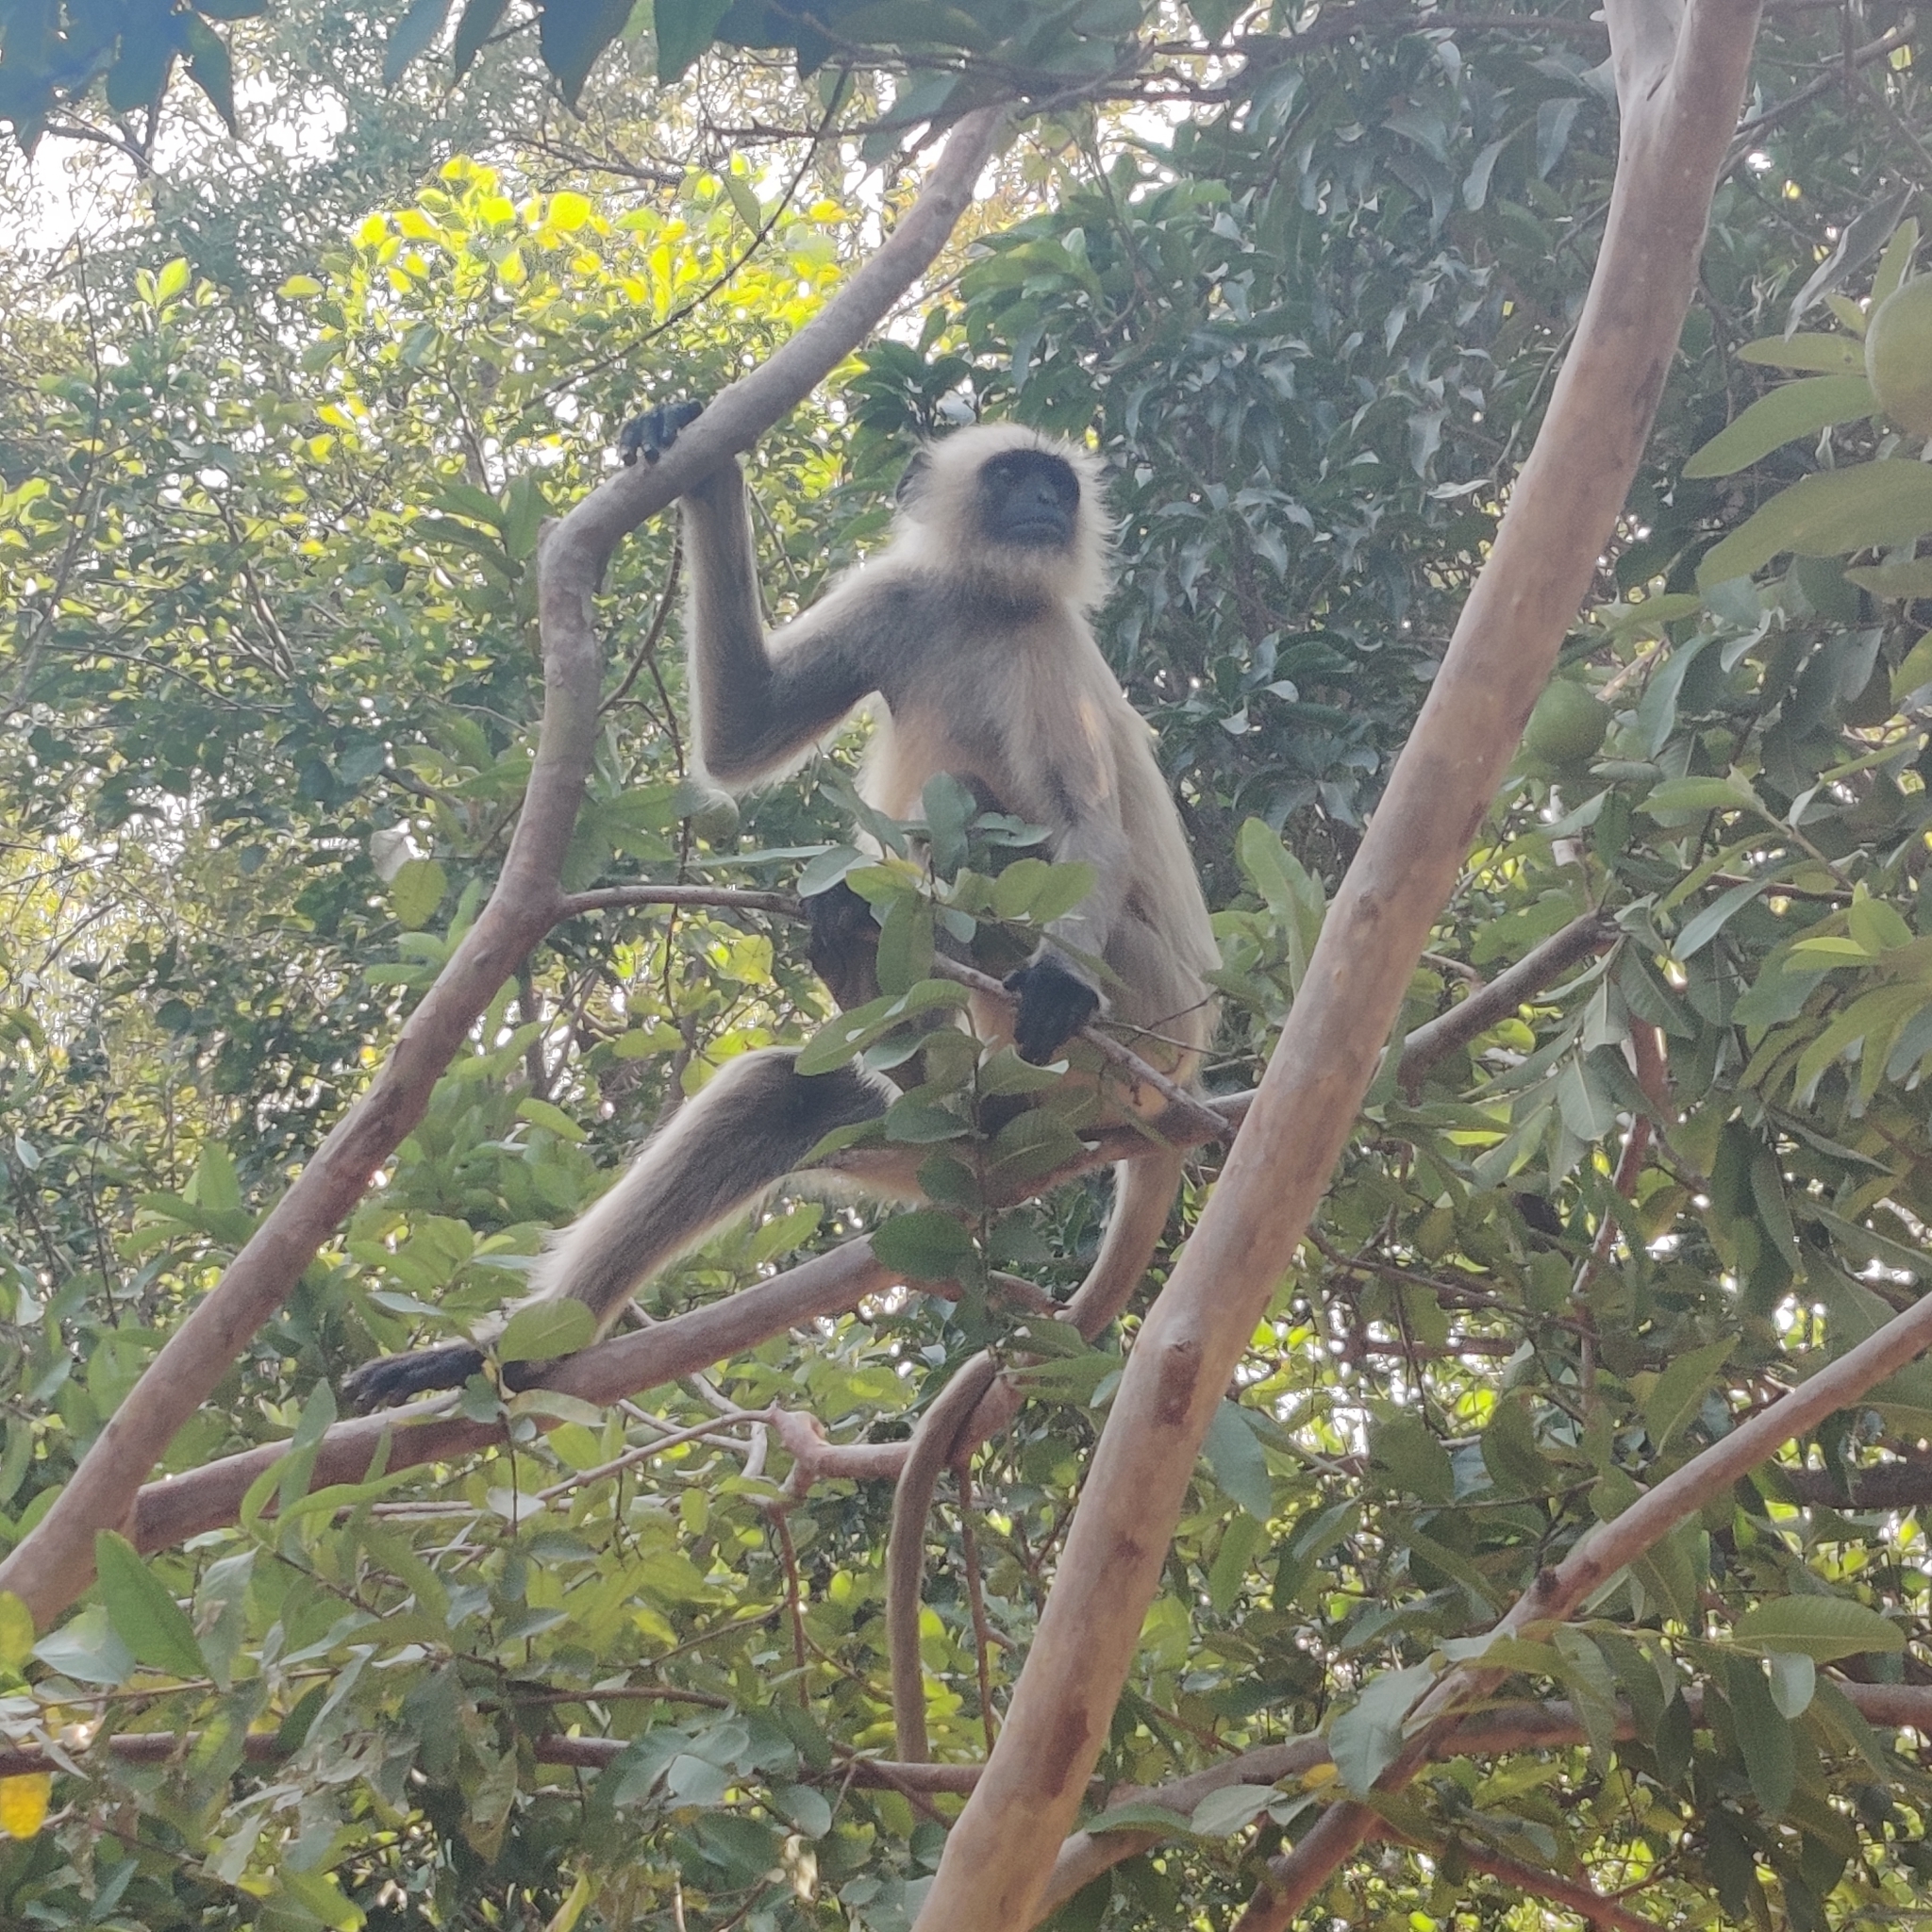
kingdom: Animalia
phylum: Chordata
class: Mammalia
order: Primates
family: Cercopithecidae
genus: Semnopithecus
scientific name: Semnopithecus entellus
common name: Northern plains gray langur
